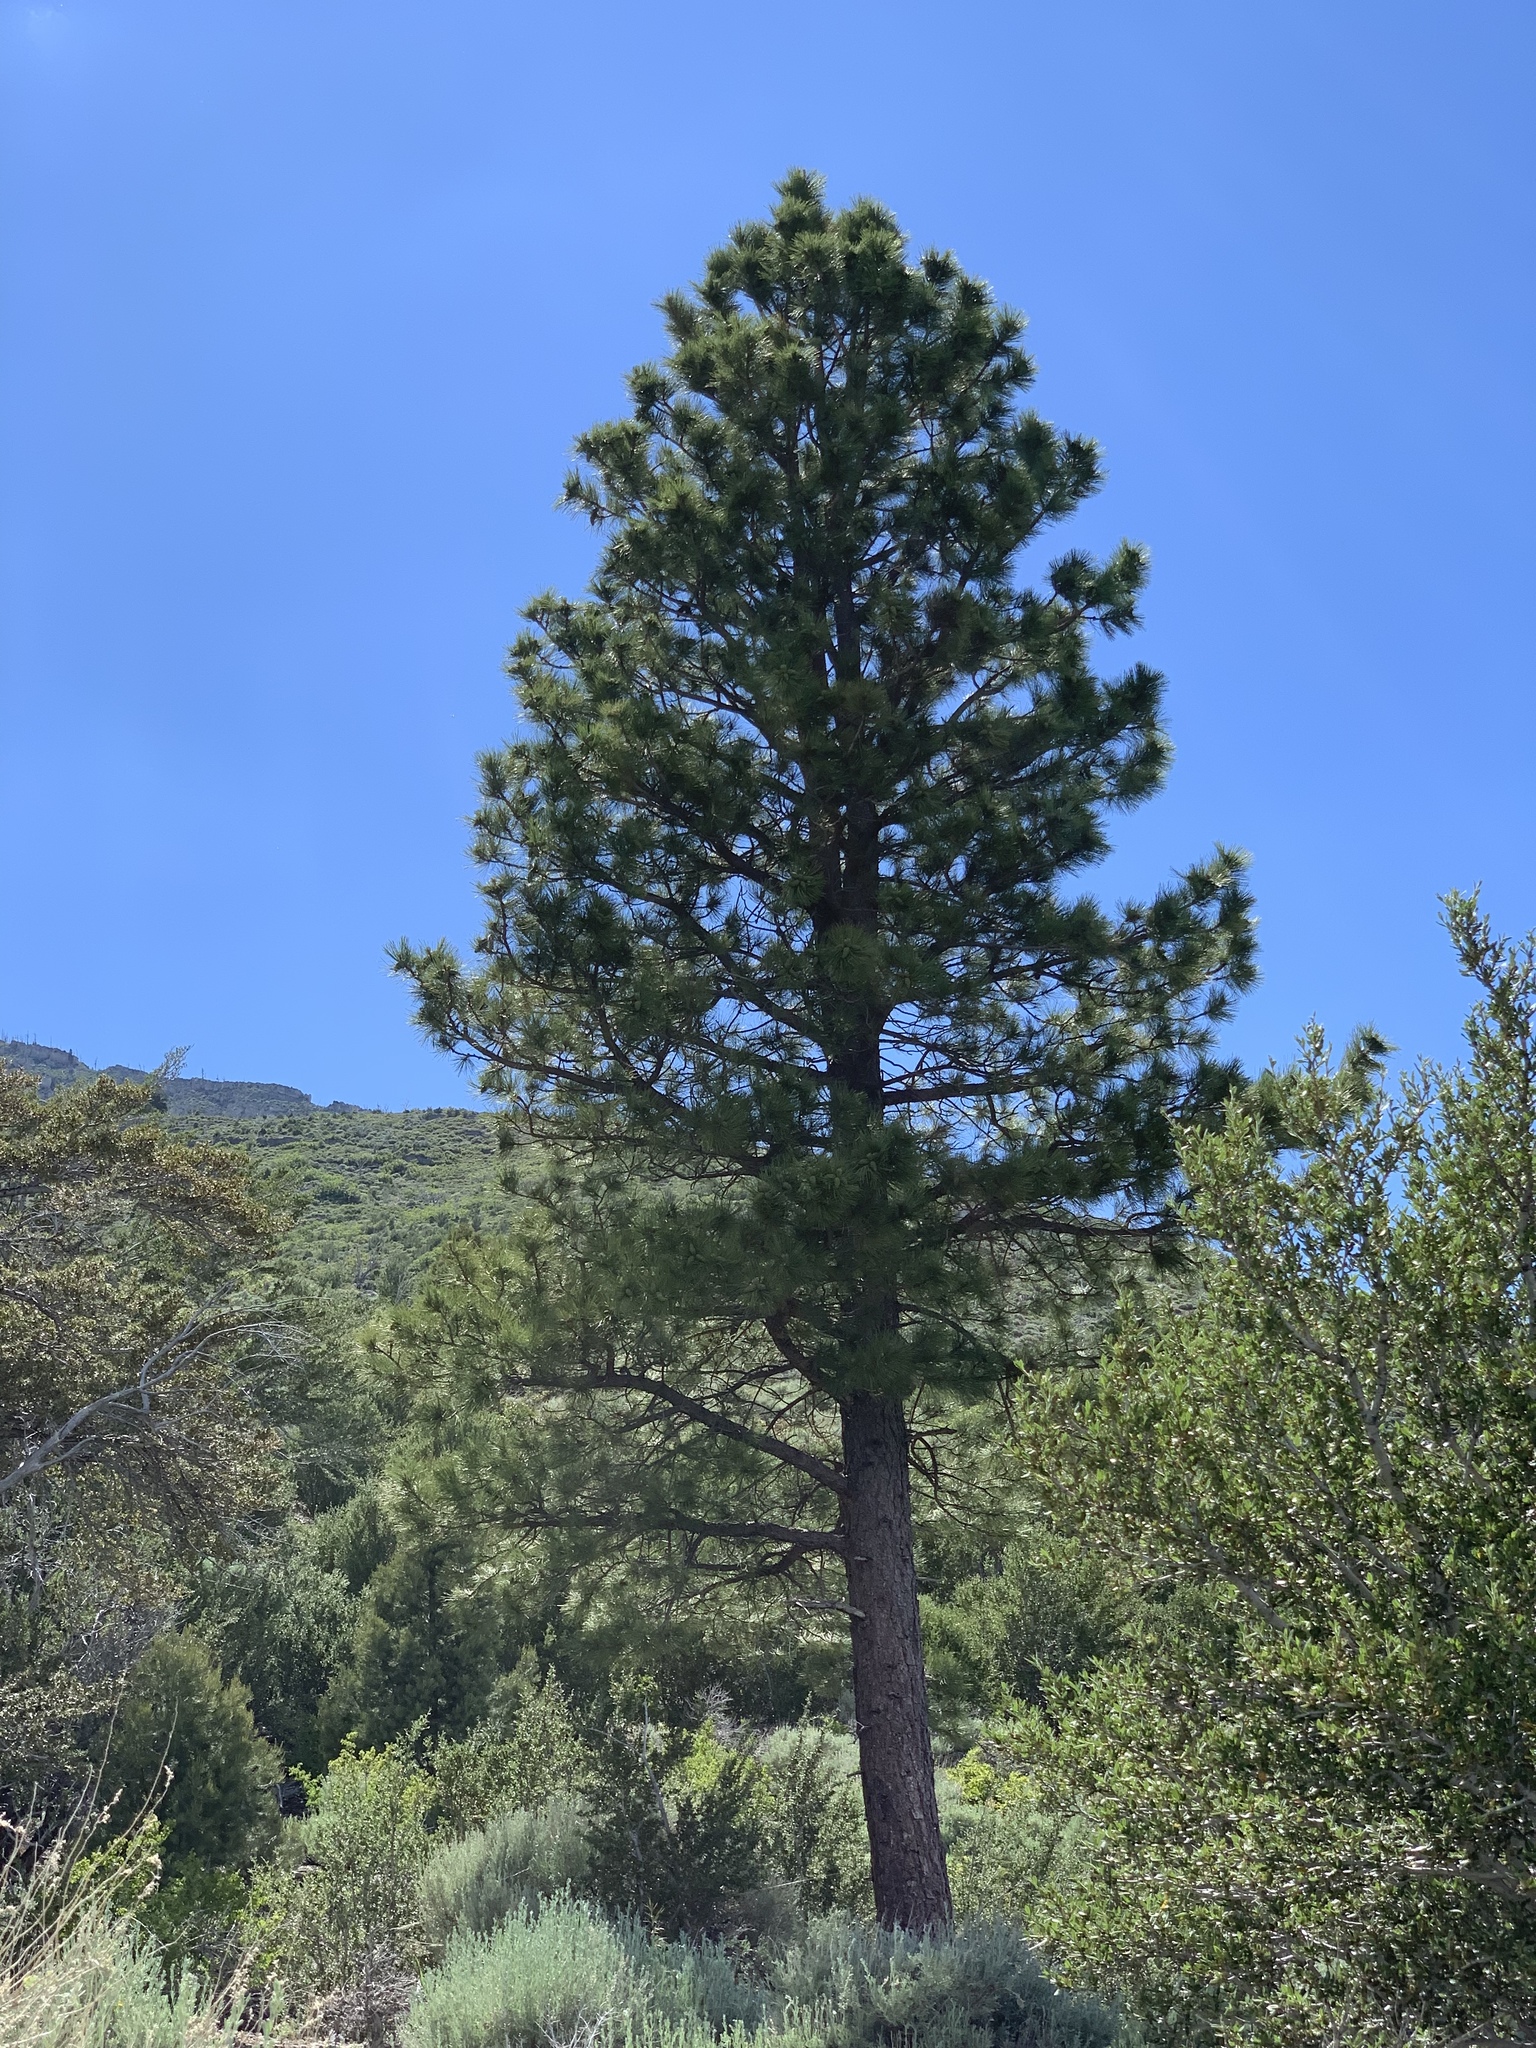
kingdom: Plantae
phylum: Tracheophyta
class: Pinopsida
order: Pinales
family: Pinaceae
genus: Pinus
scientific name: Pinus ponderosa
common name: Western yellow-pine
